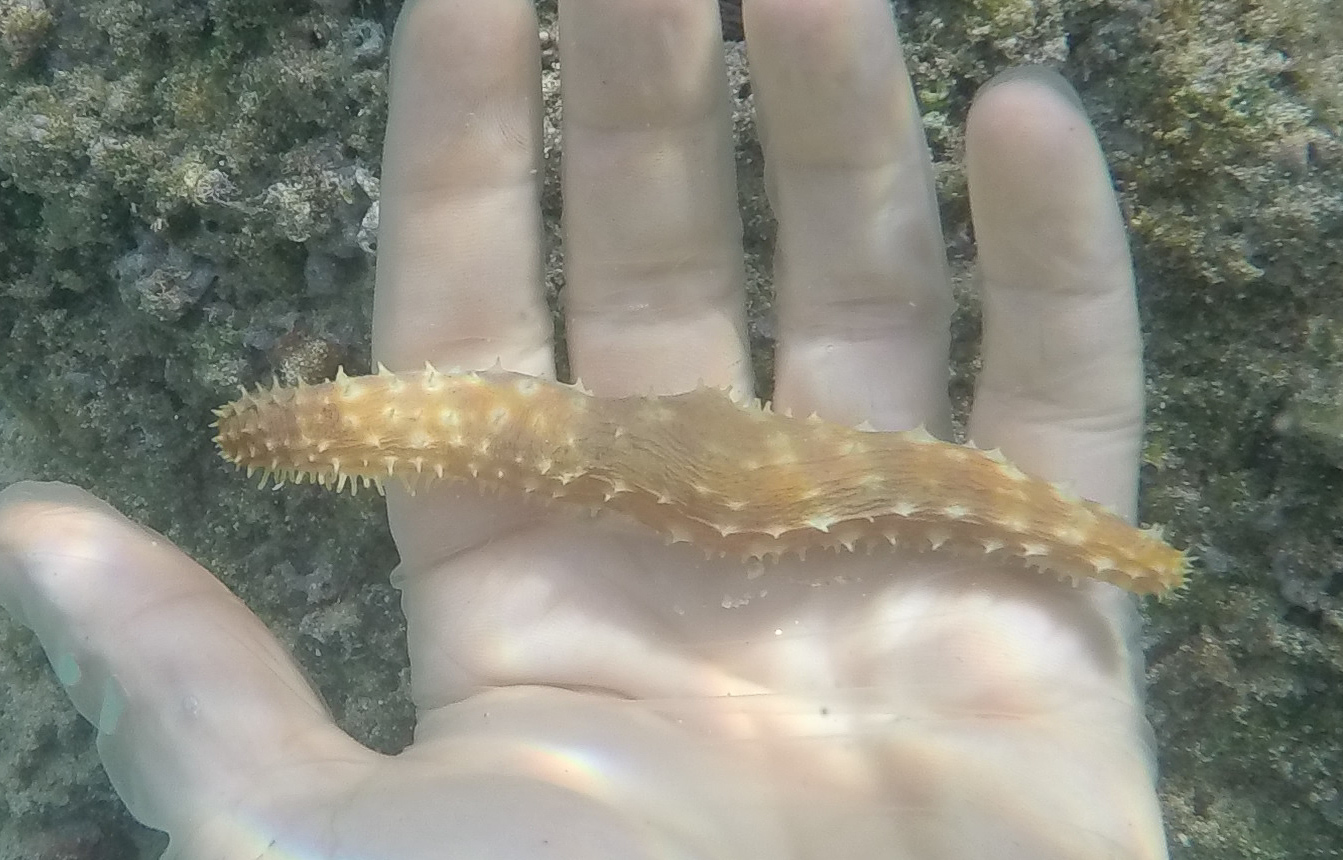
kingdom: Animalia
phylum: Echinodermata
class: Holothuroidea
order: Holothuriida
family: Holothuriidae
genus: Holothuria
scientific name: Holothuria hilla
